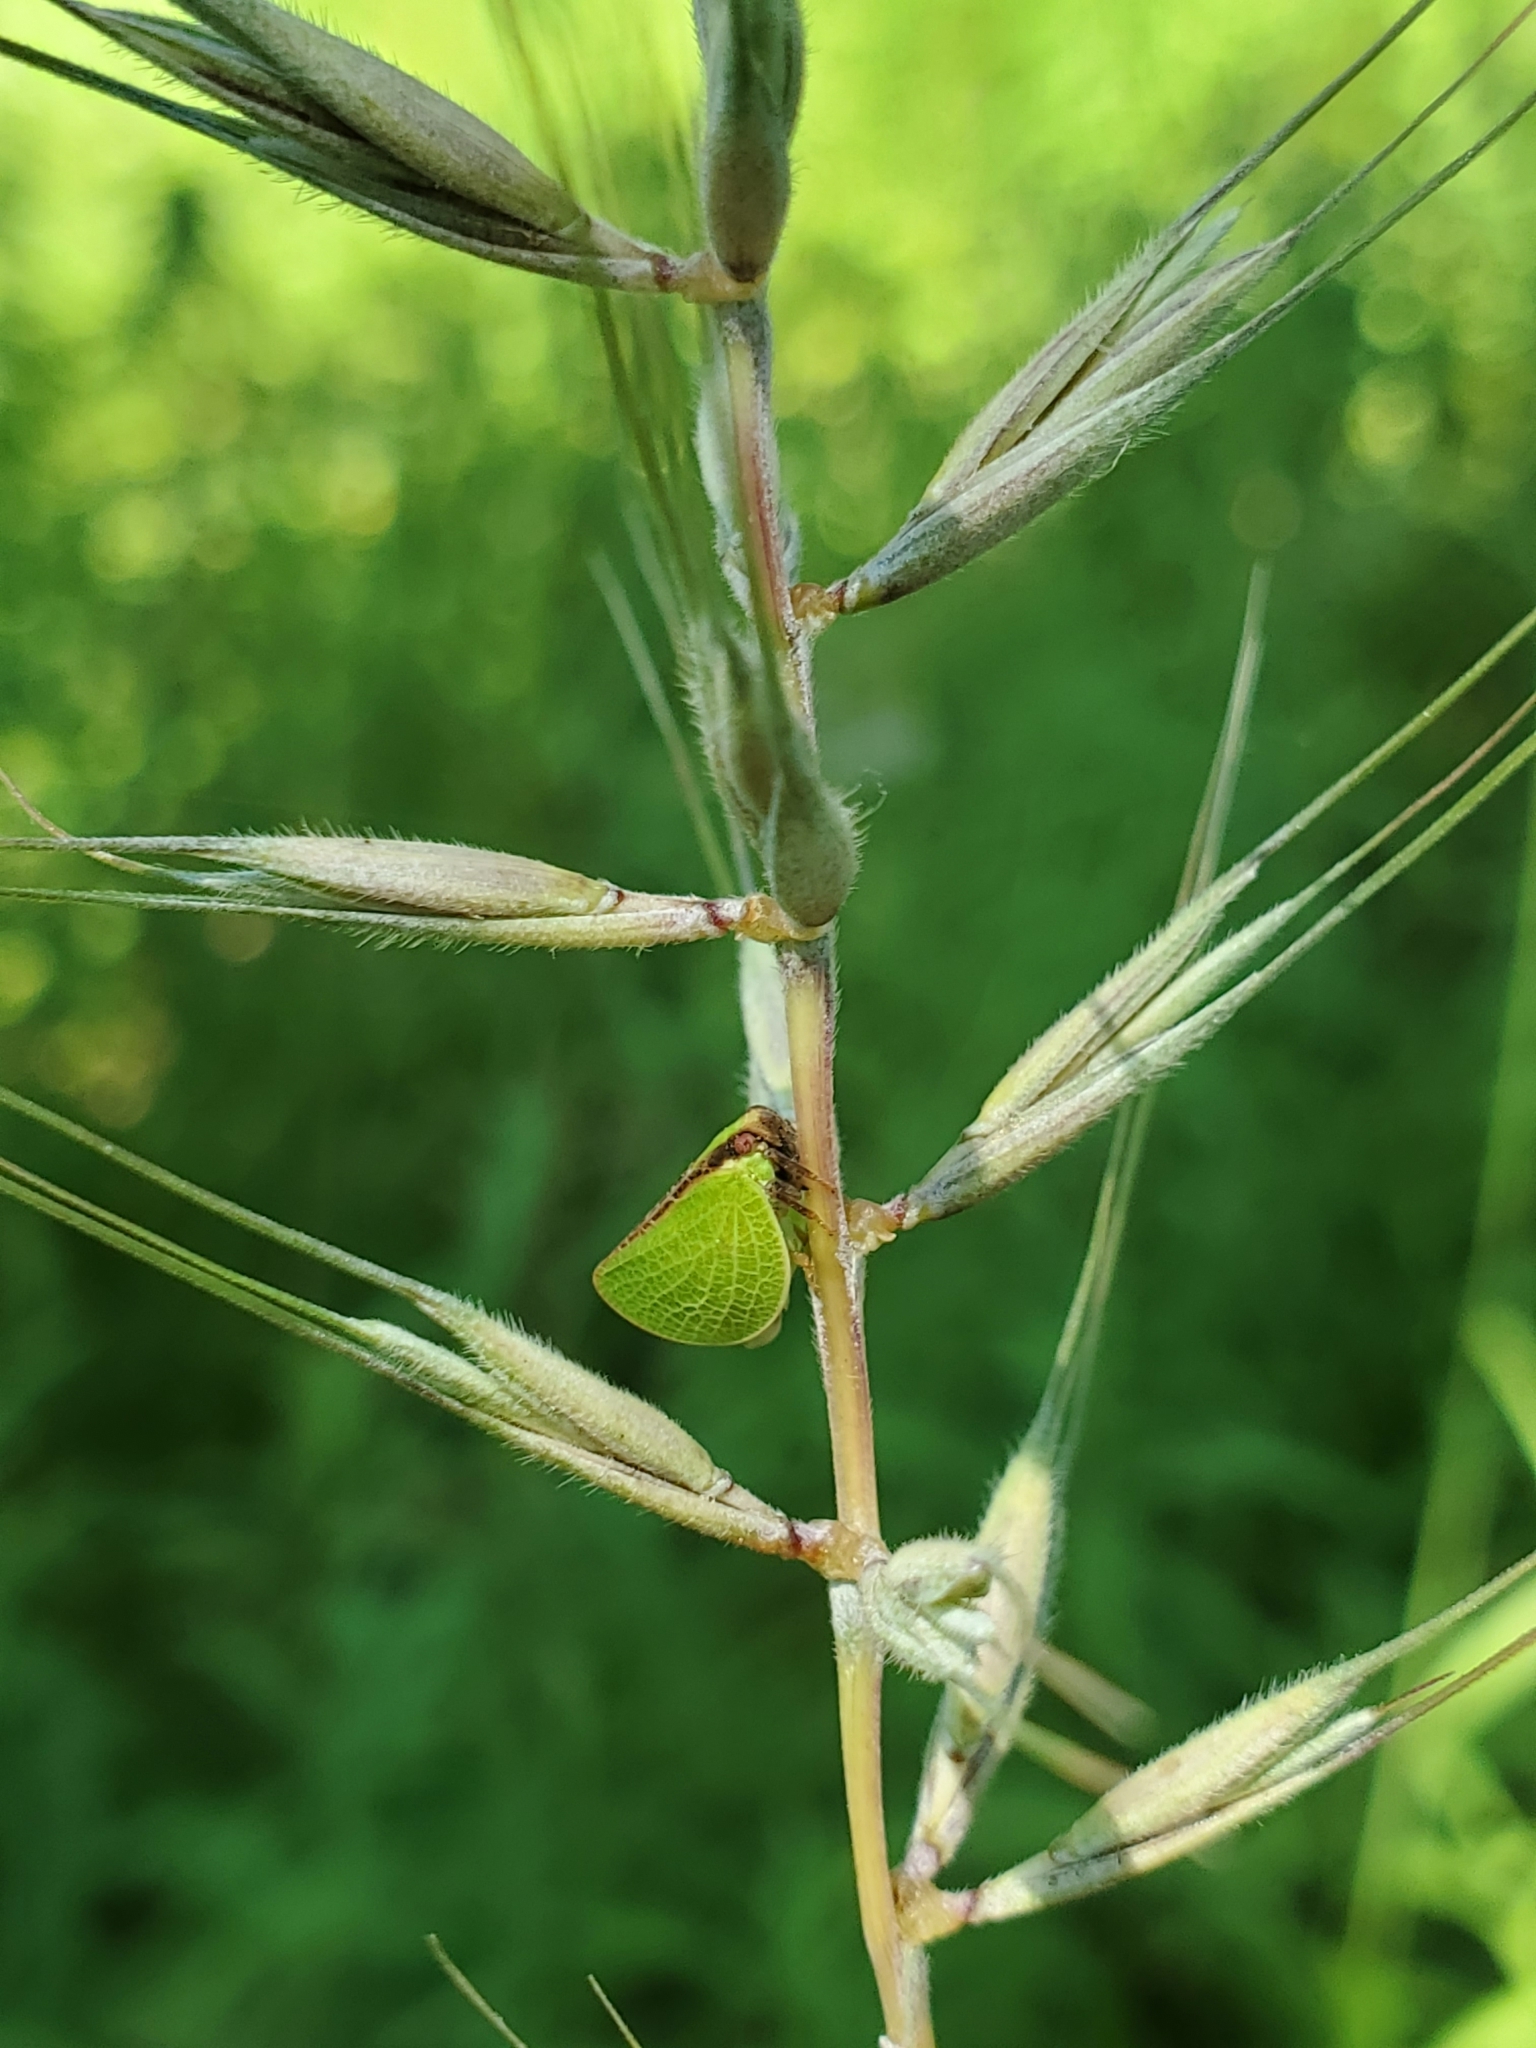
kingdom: Animalia
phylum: Arthropoda
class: Insecta
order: Hemiptera
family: Acanaloniidae
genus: Acanalonia
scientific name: Acanalonia bivittata
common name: Two-striped planthopper
